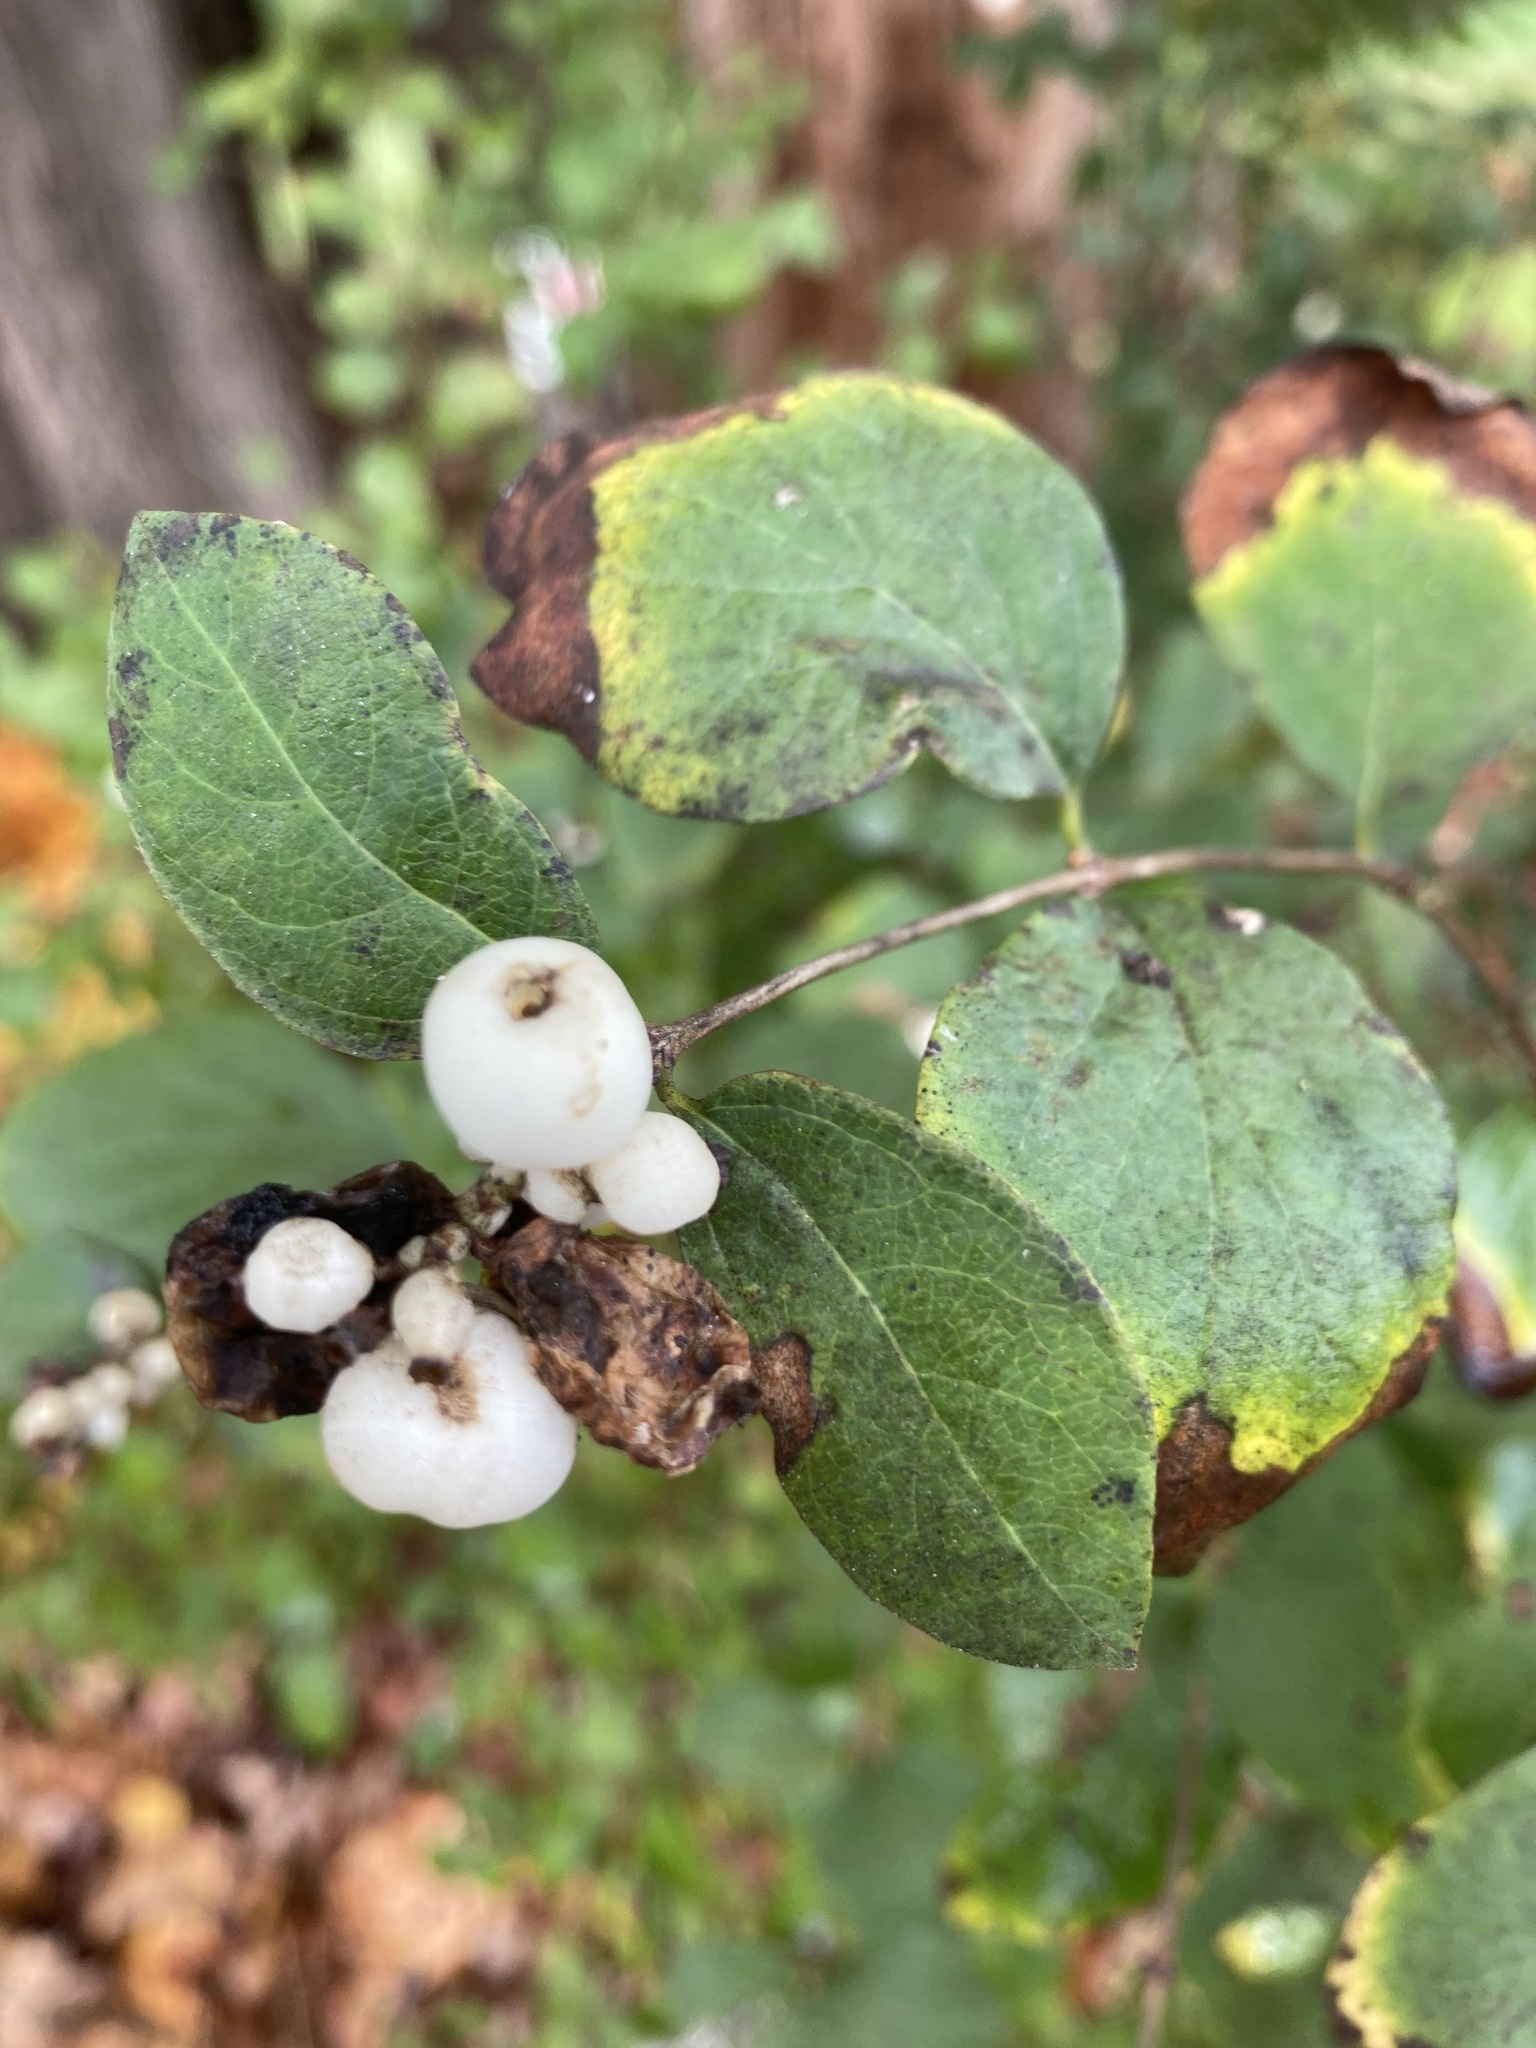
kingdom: Plantae
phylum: Tracheophyta
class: Magnoliopsida
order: Dipsacales
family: Caprifoliaceae
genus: Symphoricarpos
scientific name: Symphoricarpos albus
